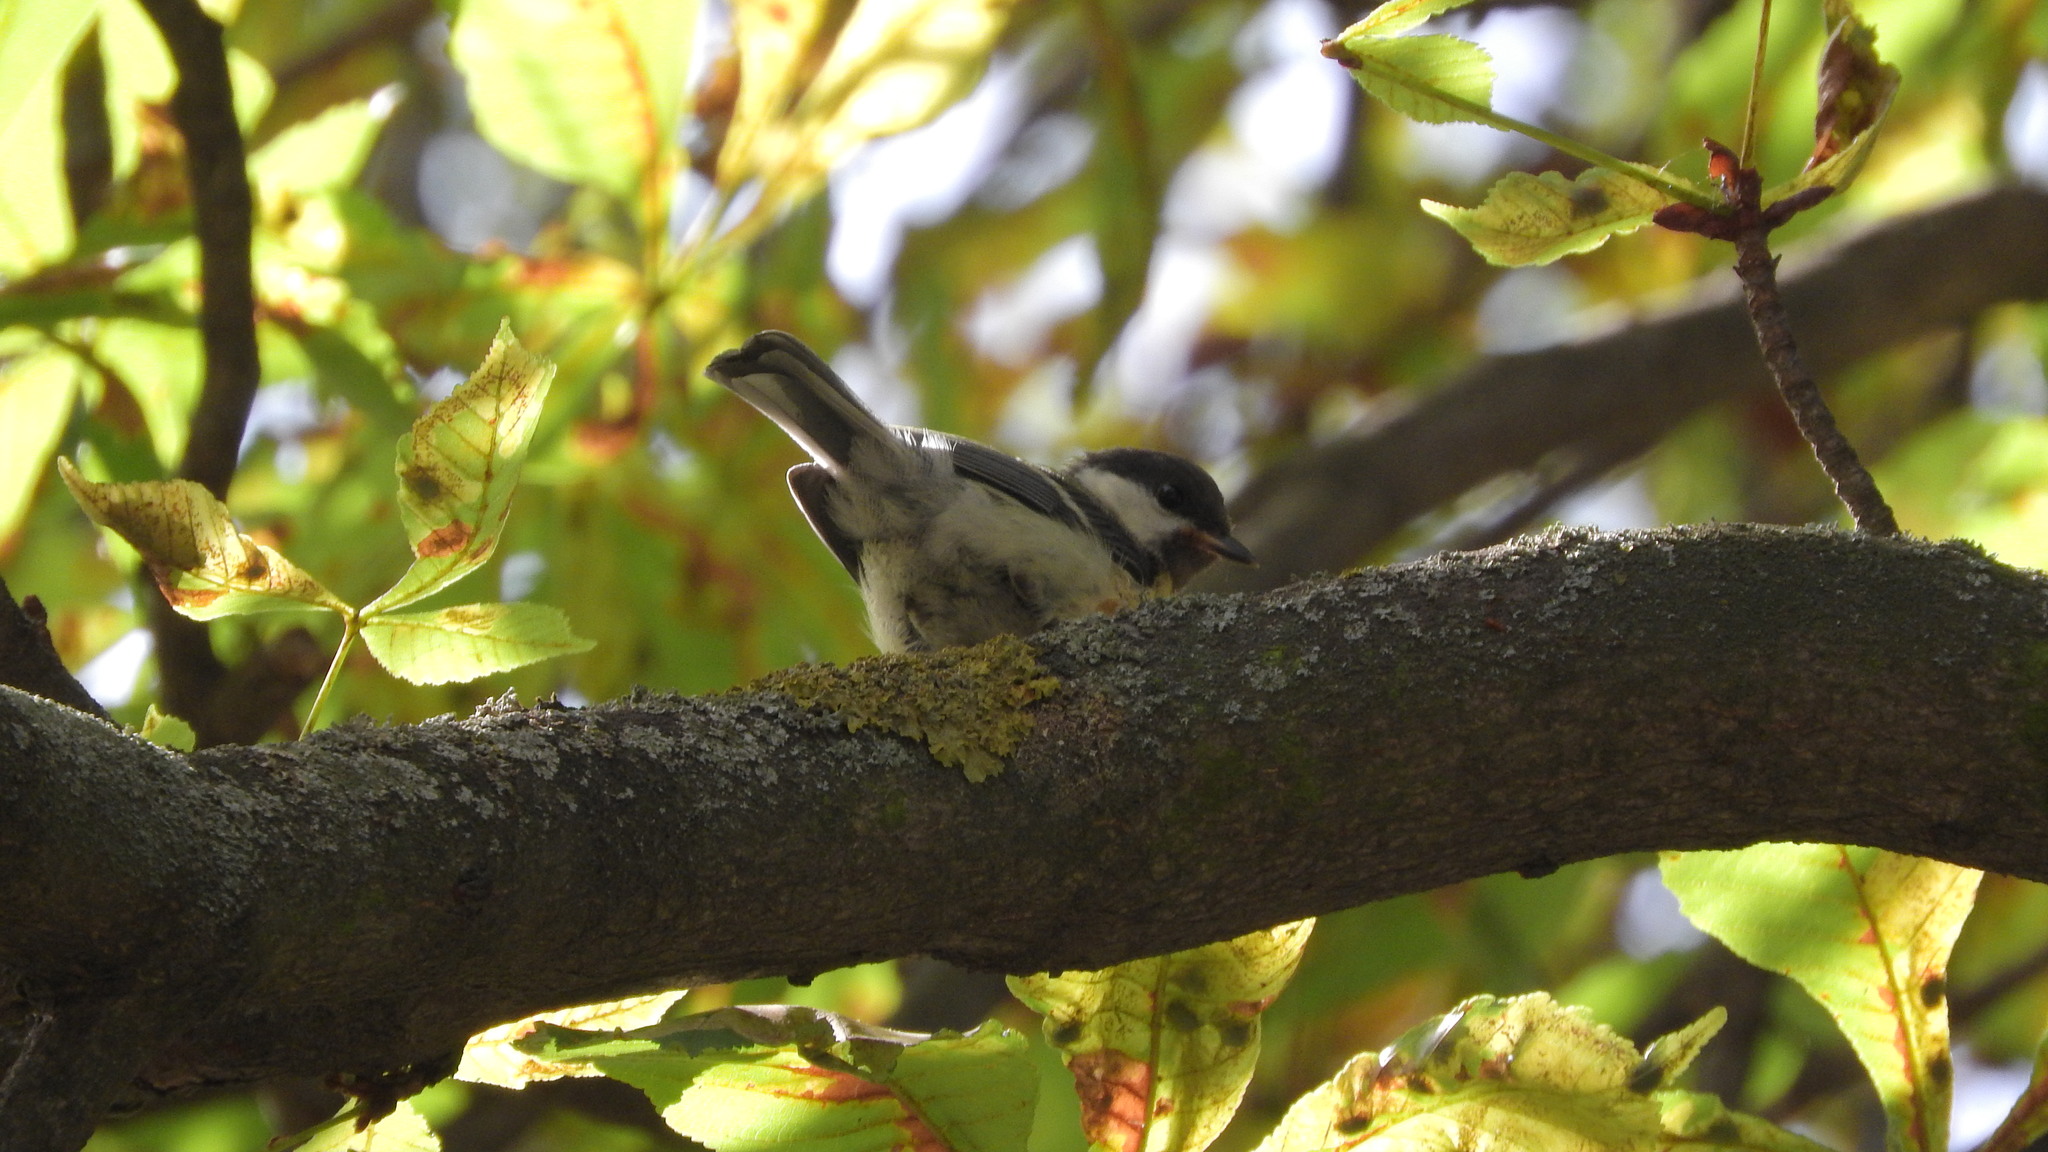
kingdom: Animalia
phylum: Chordata
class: Aves
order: Passeriformes
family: Paridae
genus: Parus
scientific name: Parus major
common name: Great tit
